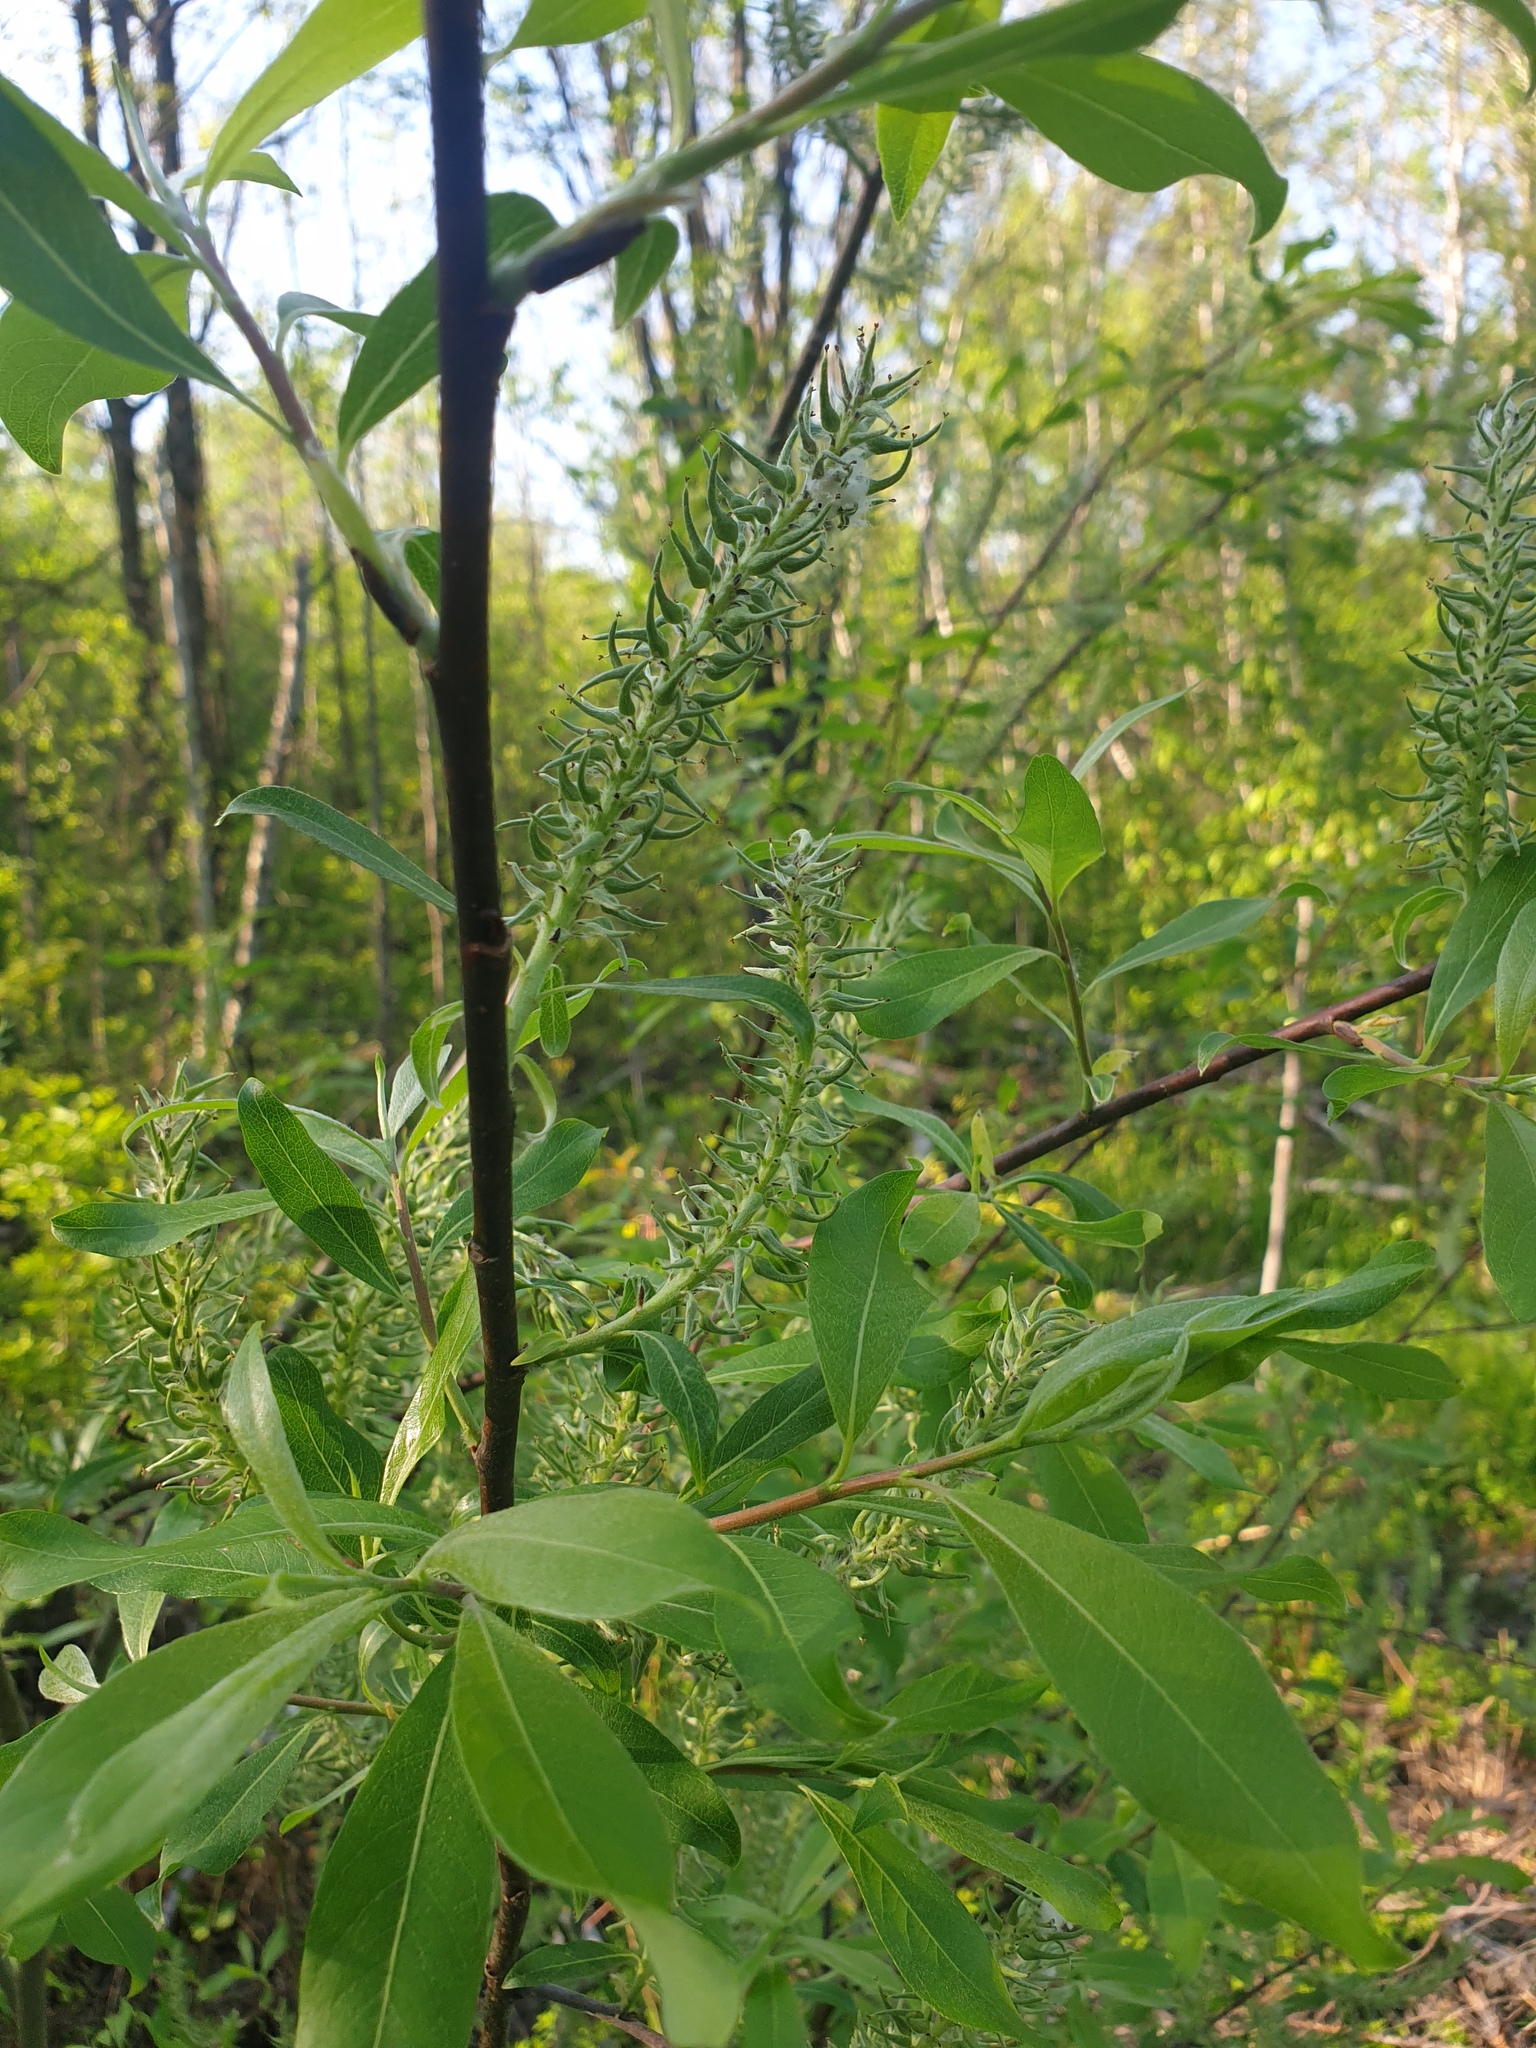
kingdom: Plantae
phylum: Tracheophyta
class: Magnoliopsida
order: Malpighiales
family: Salicaceae
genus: Salix
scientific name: Salix discolor
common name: Glaucous willow
